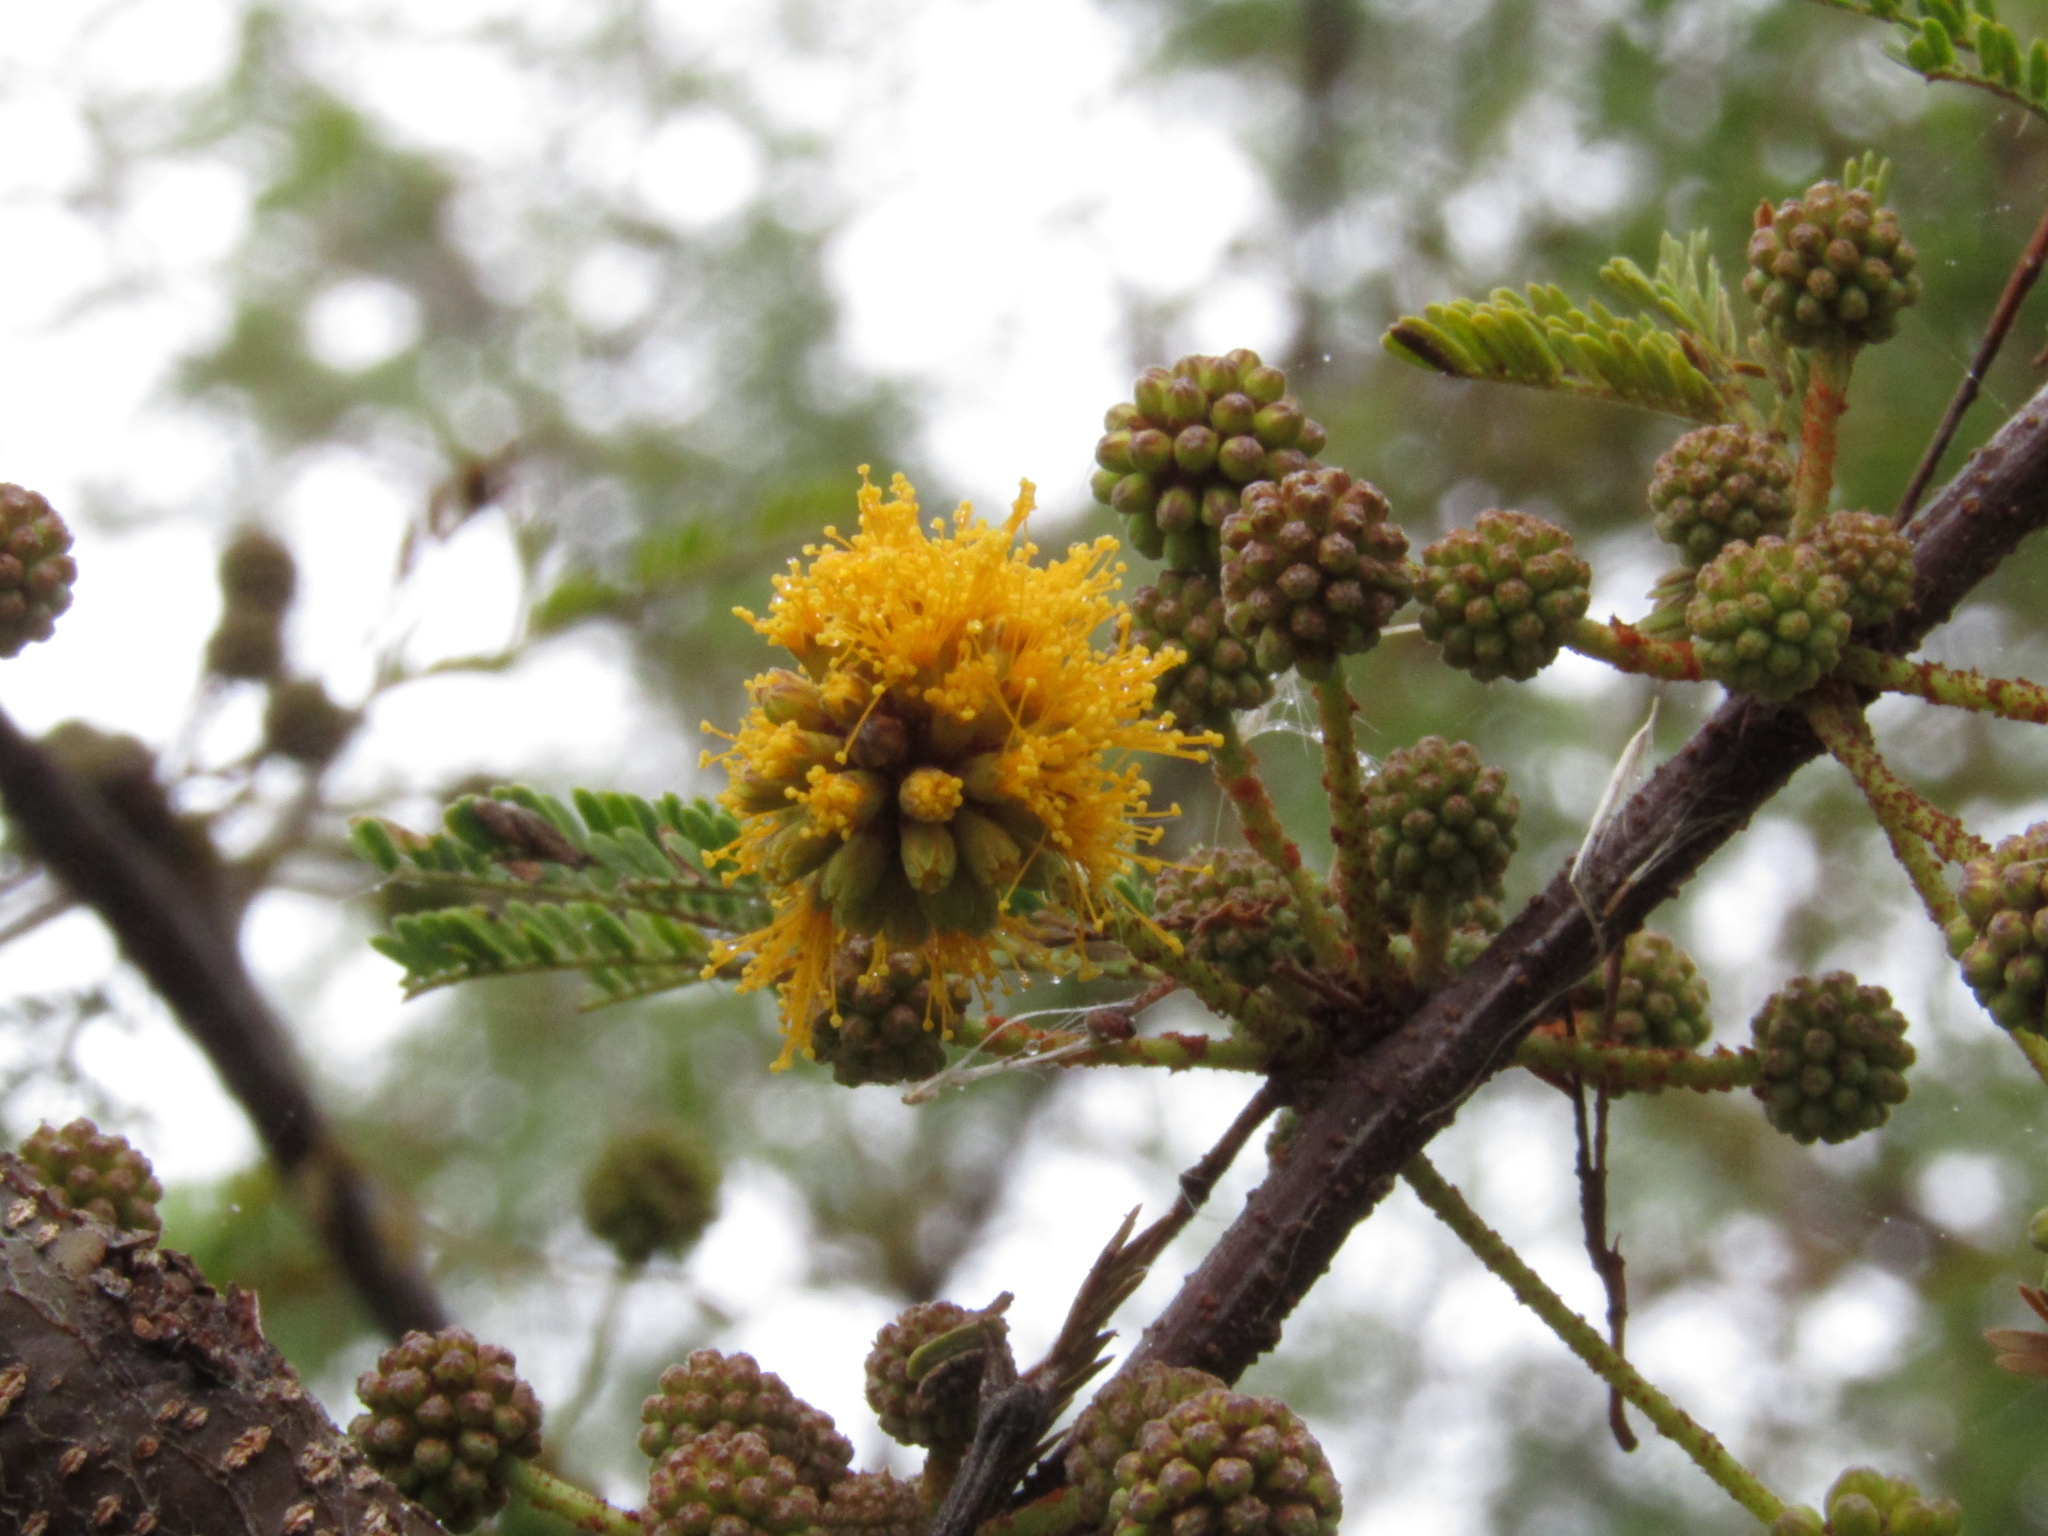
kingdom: Plantae
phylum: Tracheophyta
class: Magnoliopsida
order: Fabales
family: Fabaceae
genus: Vachellia
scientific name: Vachellia caven
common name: Roman cassie
